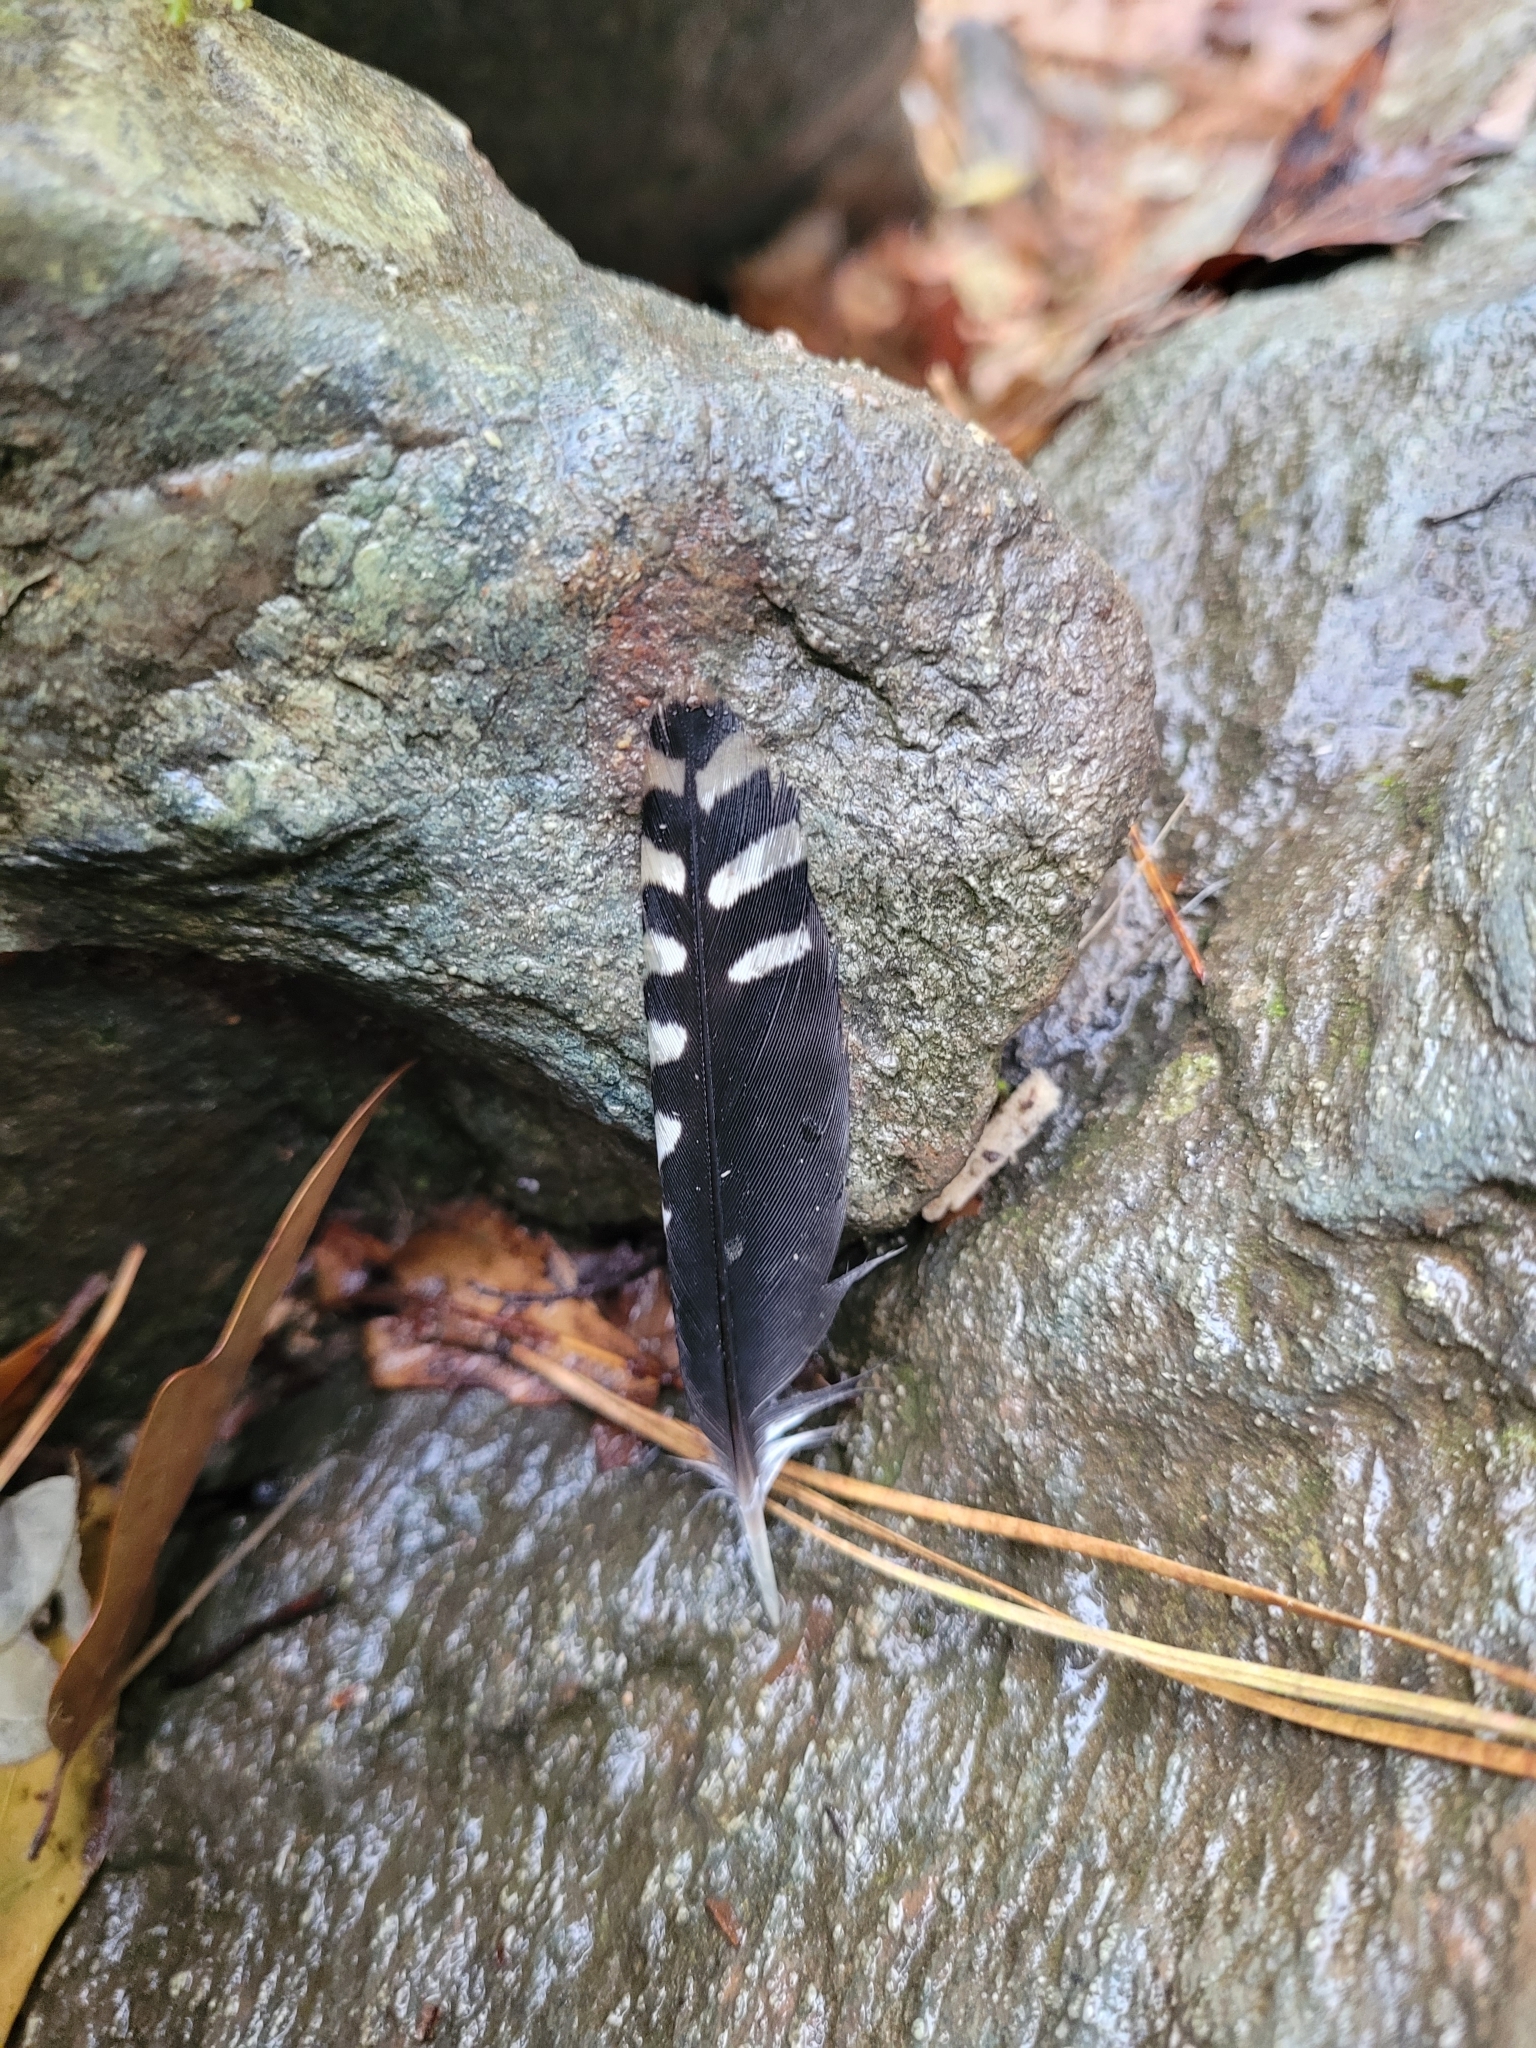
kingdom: Animalia
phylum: Chordata
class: Aves
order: Piciformes
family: Picidae
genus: Melanerpes
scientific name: Melanerpes carolinus
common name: Red-bellied woodpecker
